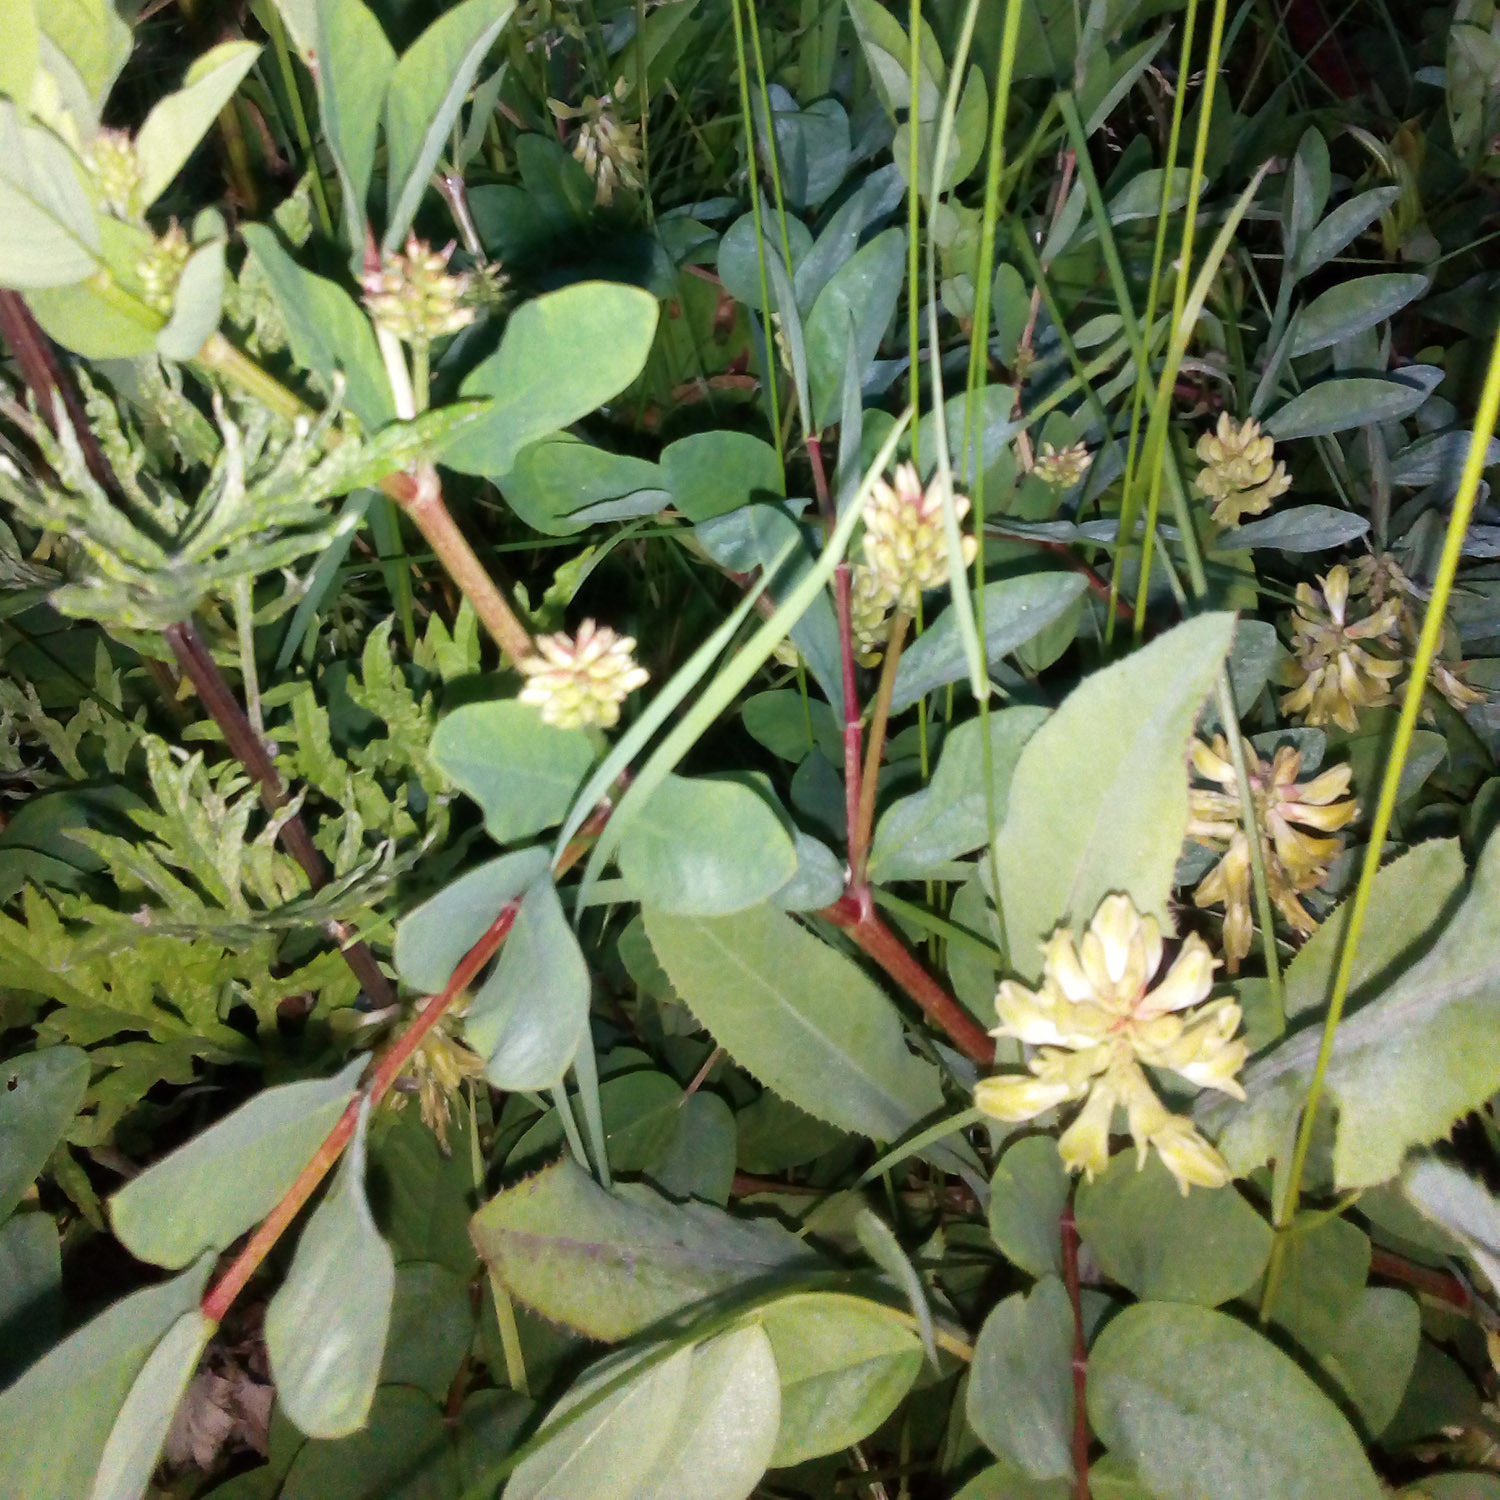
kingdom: Plantae
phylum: Tracheophyta
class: Magnoliopsida
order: Fabales
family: Fabaceae
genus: Astragalus
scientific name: Astragalus glycyphyllos
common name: Wild liquorice
